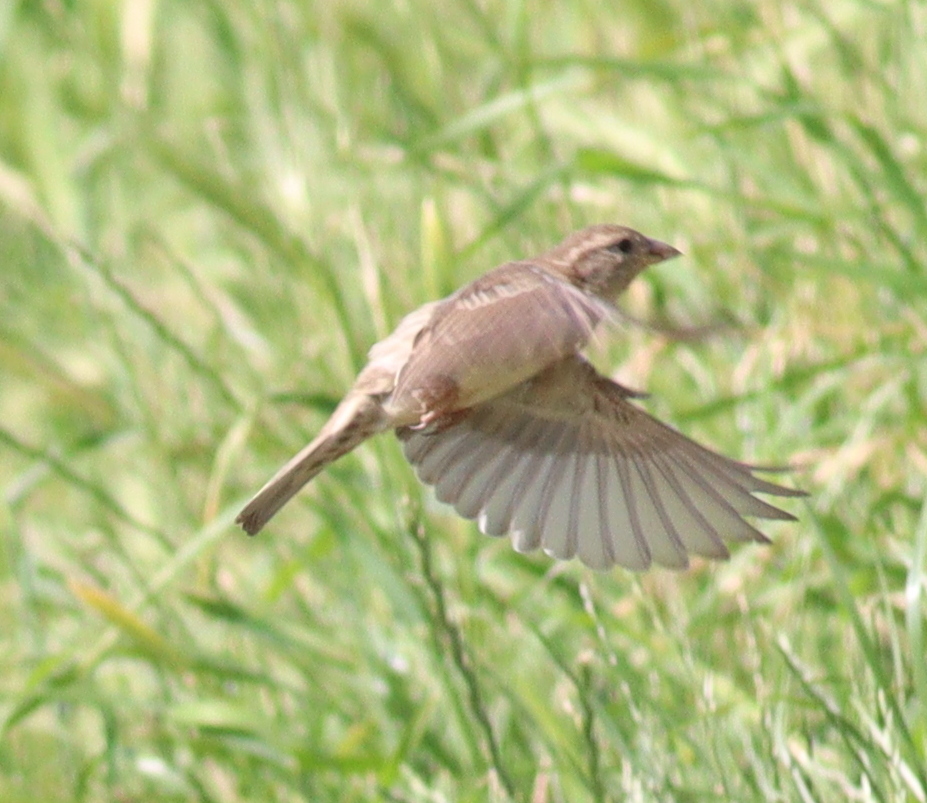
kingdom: Animalia
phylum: Chordata
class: Aves
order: Passeriformes
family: Passeridae
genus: Passer
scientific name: Passer domesticus
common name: House sparrow
